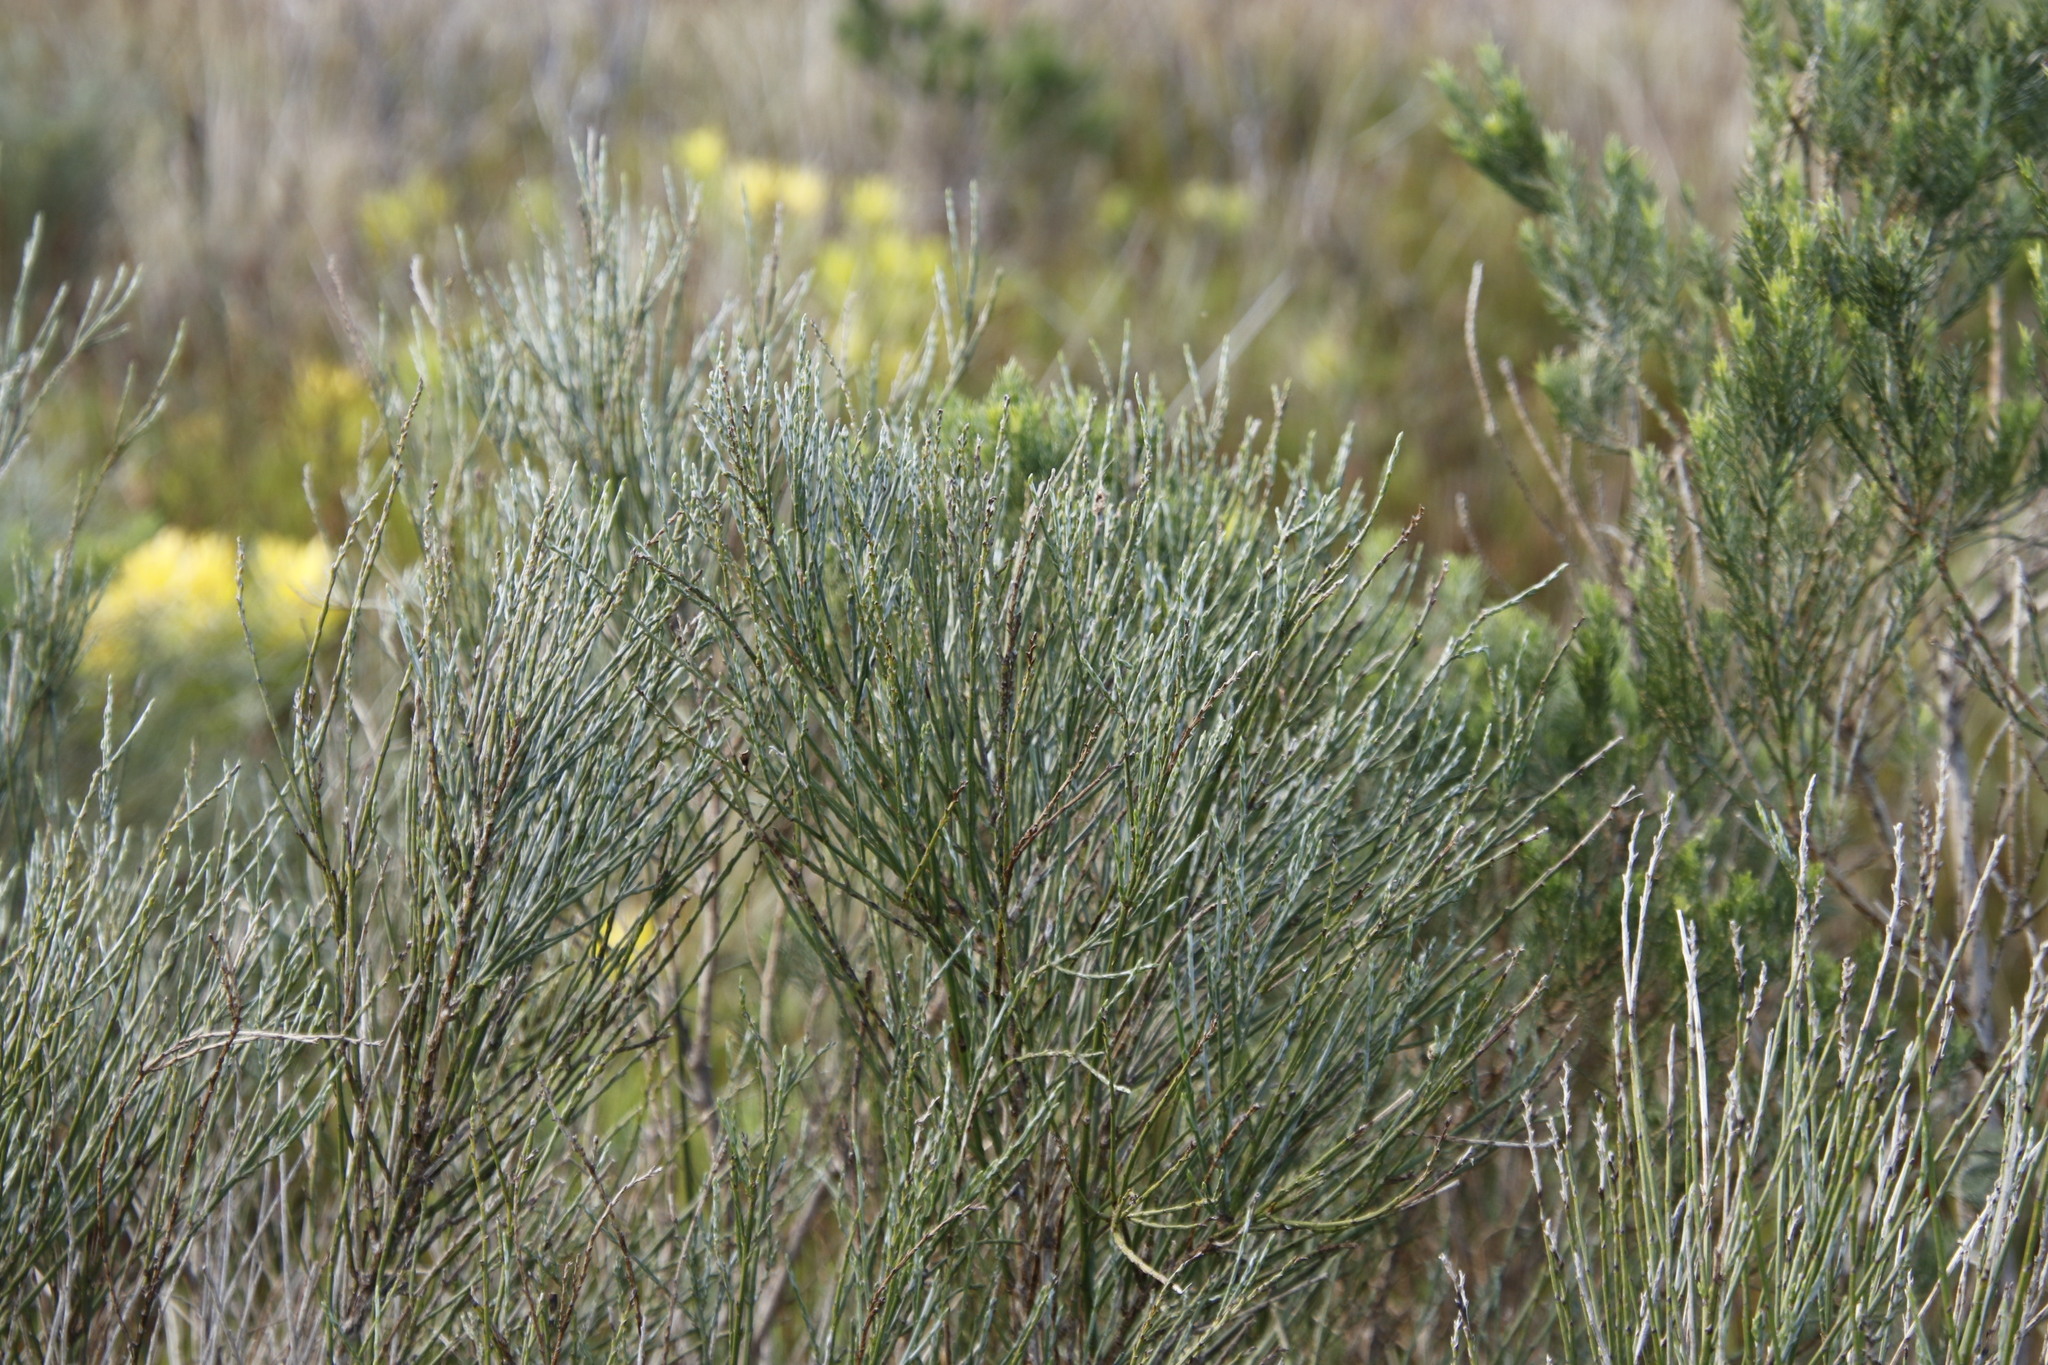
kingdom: Plantae
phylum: Tracheophyta
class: Magnoliopsida
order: Fabales
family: Fabaceae
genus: Psoralea
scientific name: Psoralea congesta
